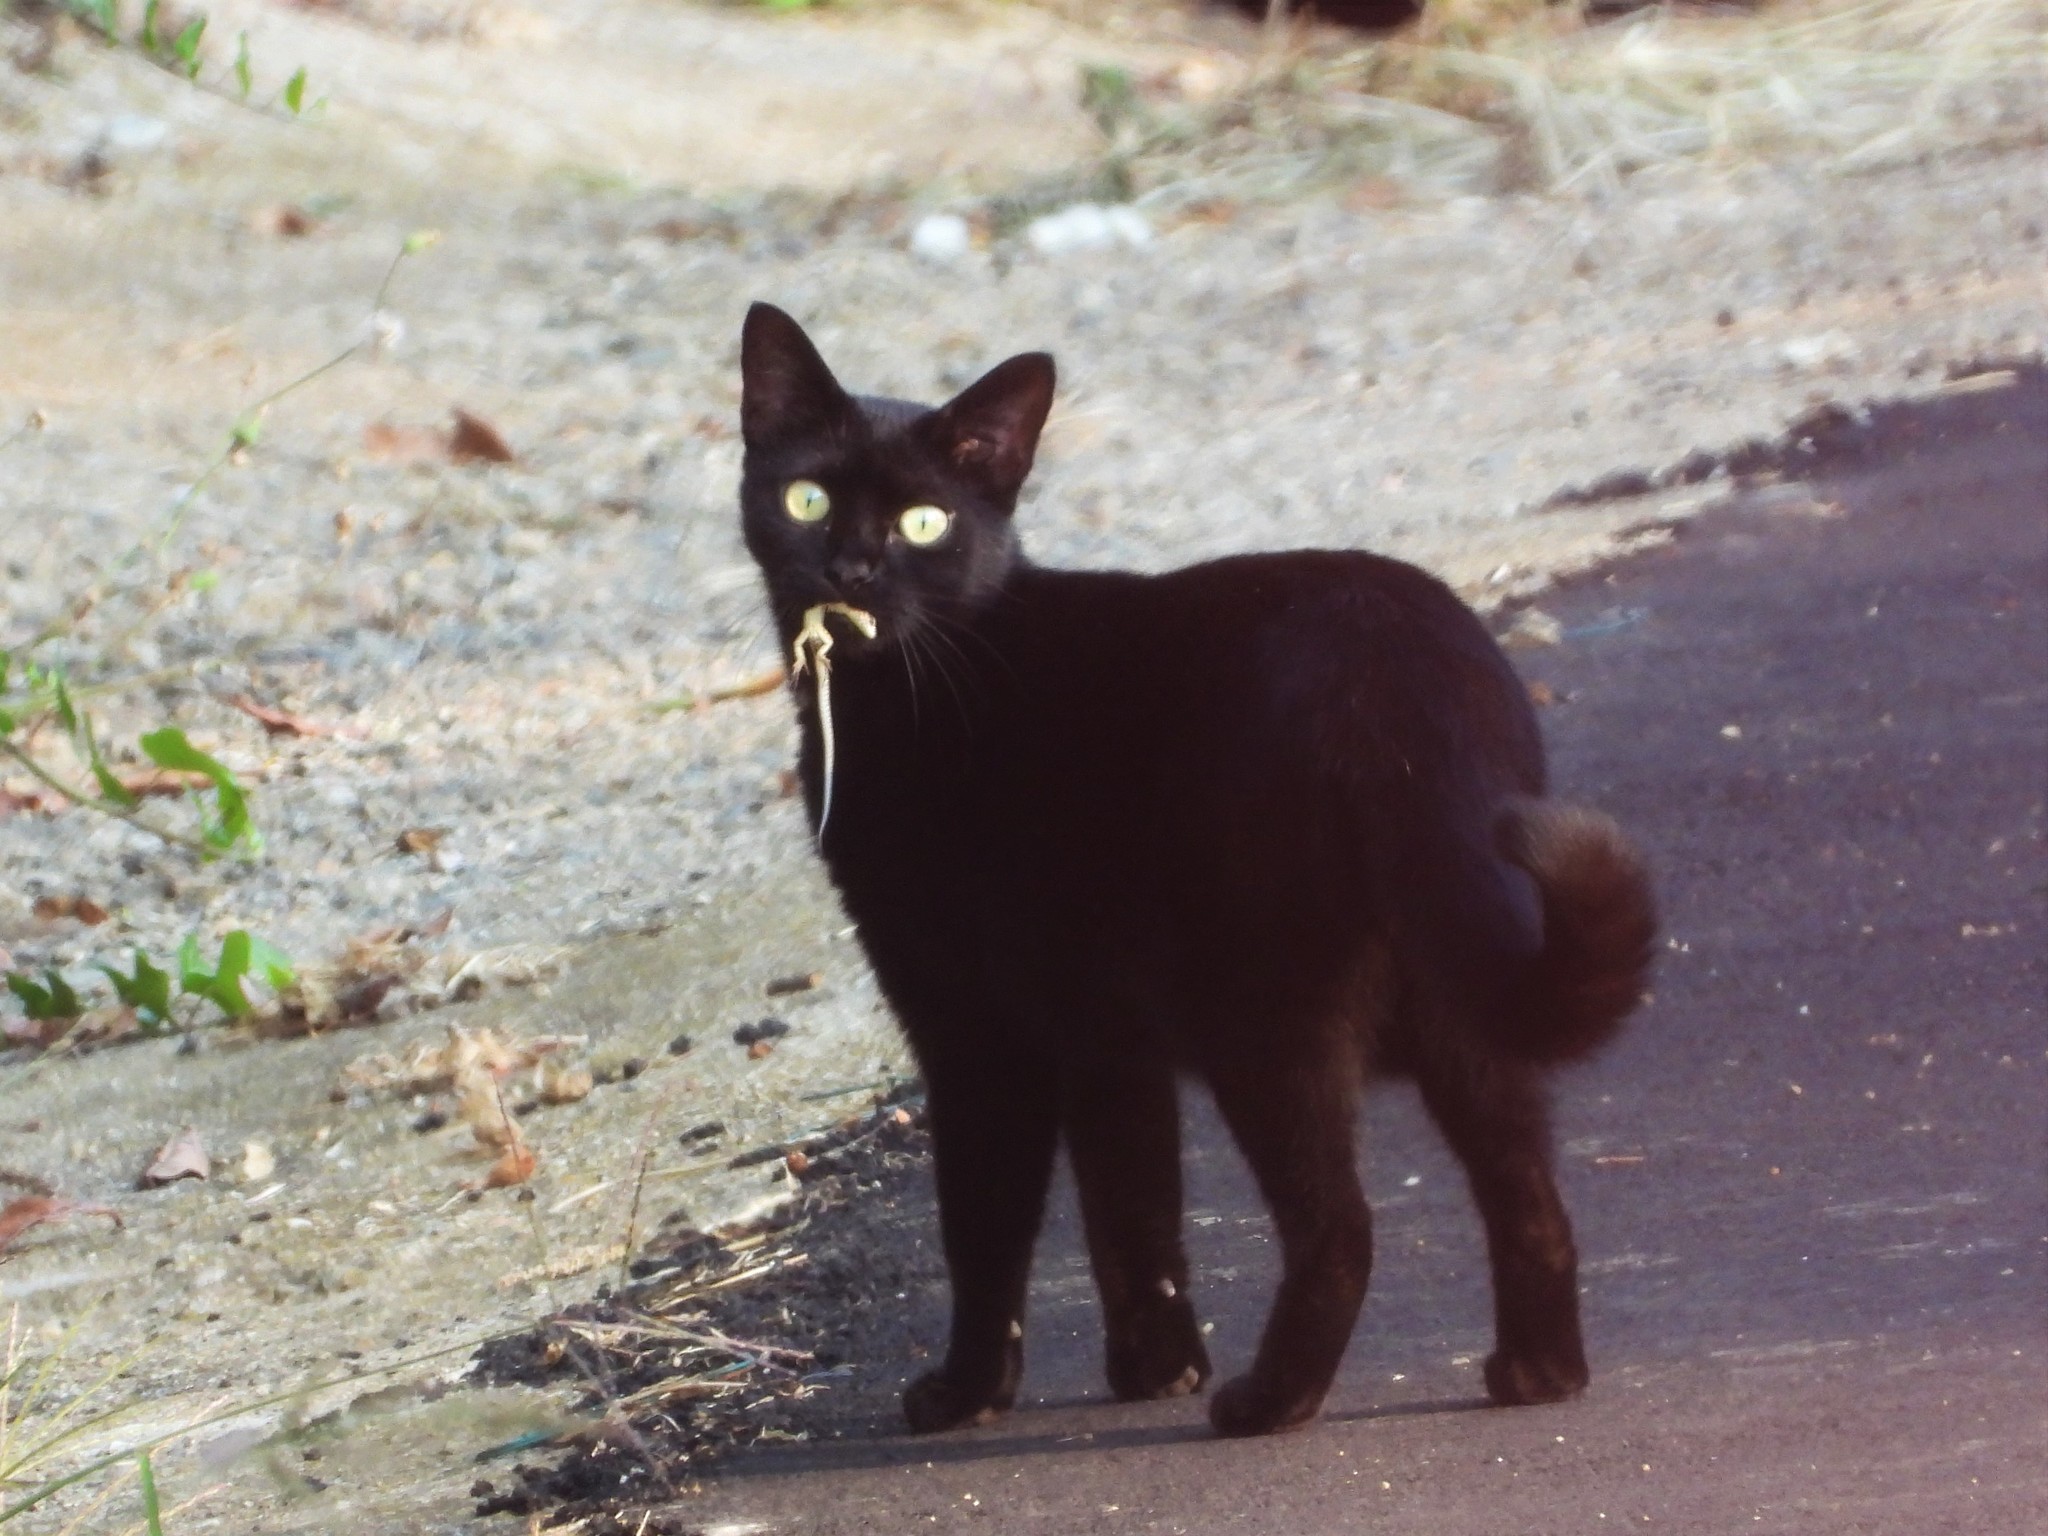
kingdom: Animalia
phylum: Chordata
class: Mammalia
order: Carnivora
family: Felidae
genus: Felis
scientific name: Felis catus
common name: Domestic cat
